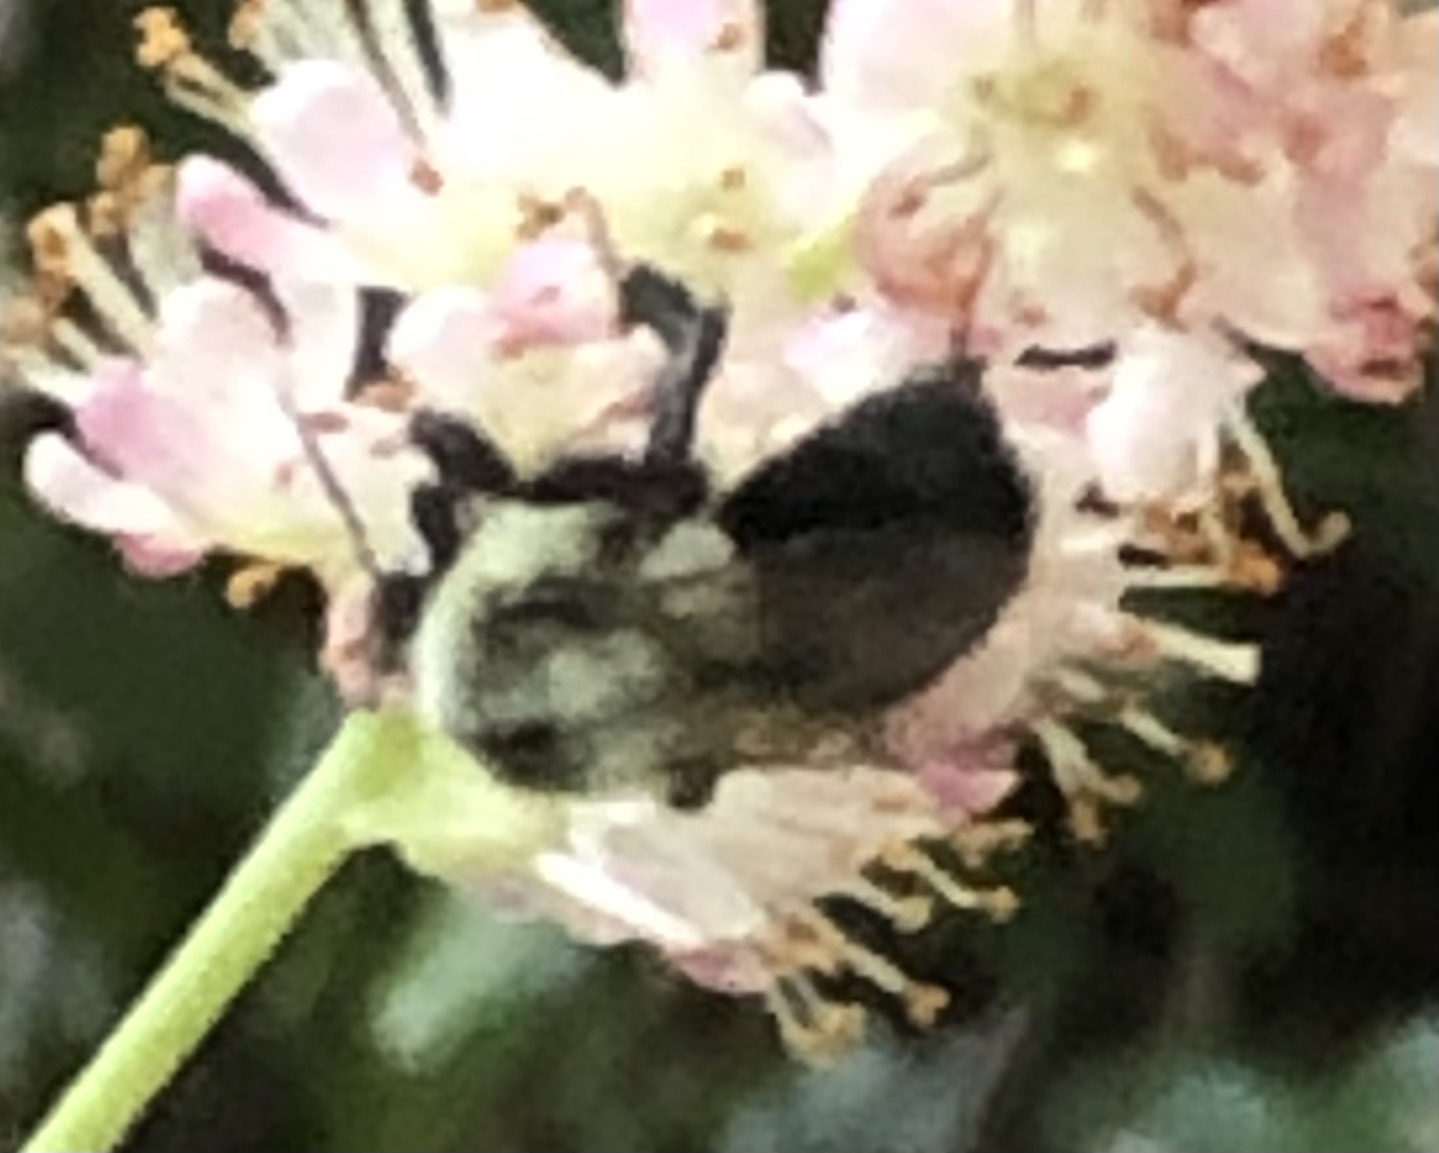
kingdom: Animalia
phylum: Arthropoda
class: Insecta
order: Hymenoptera
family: Apidae
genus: Bombus
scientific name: Bombus impatiens
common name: Common eastern bumble bee
